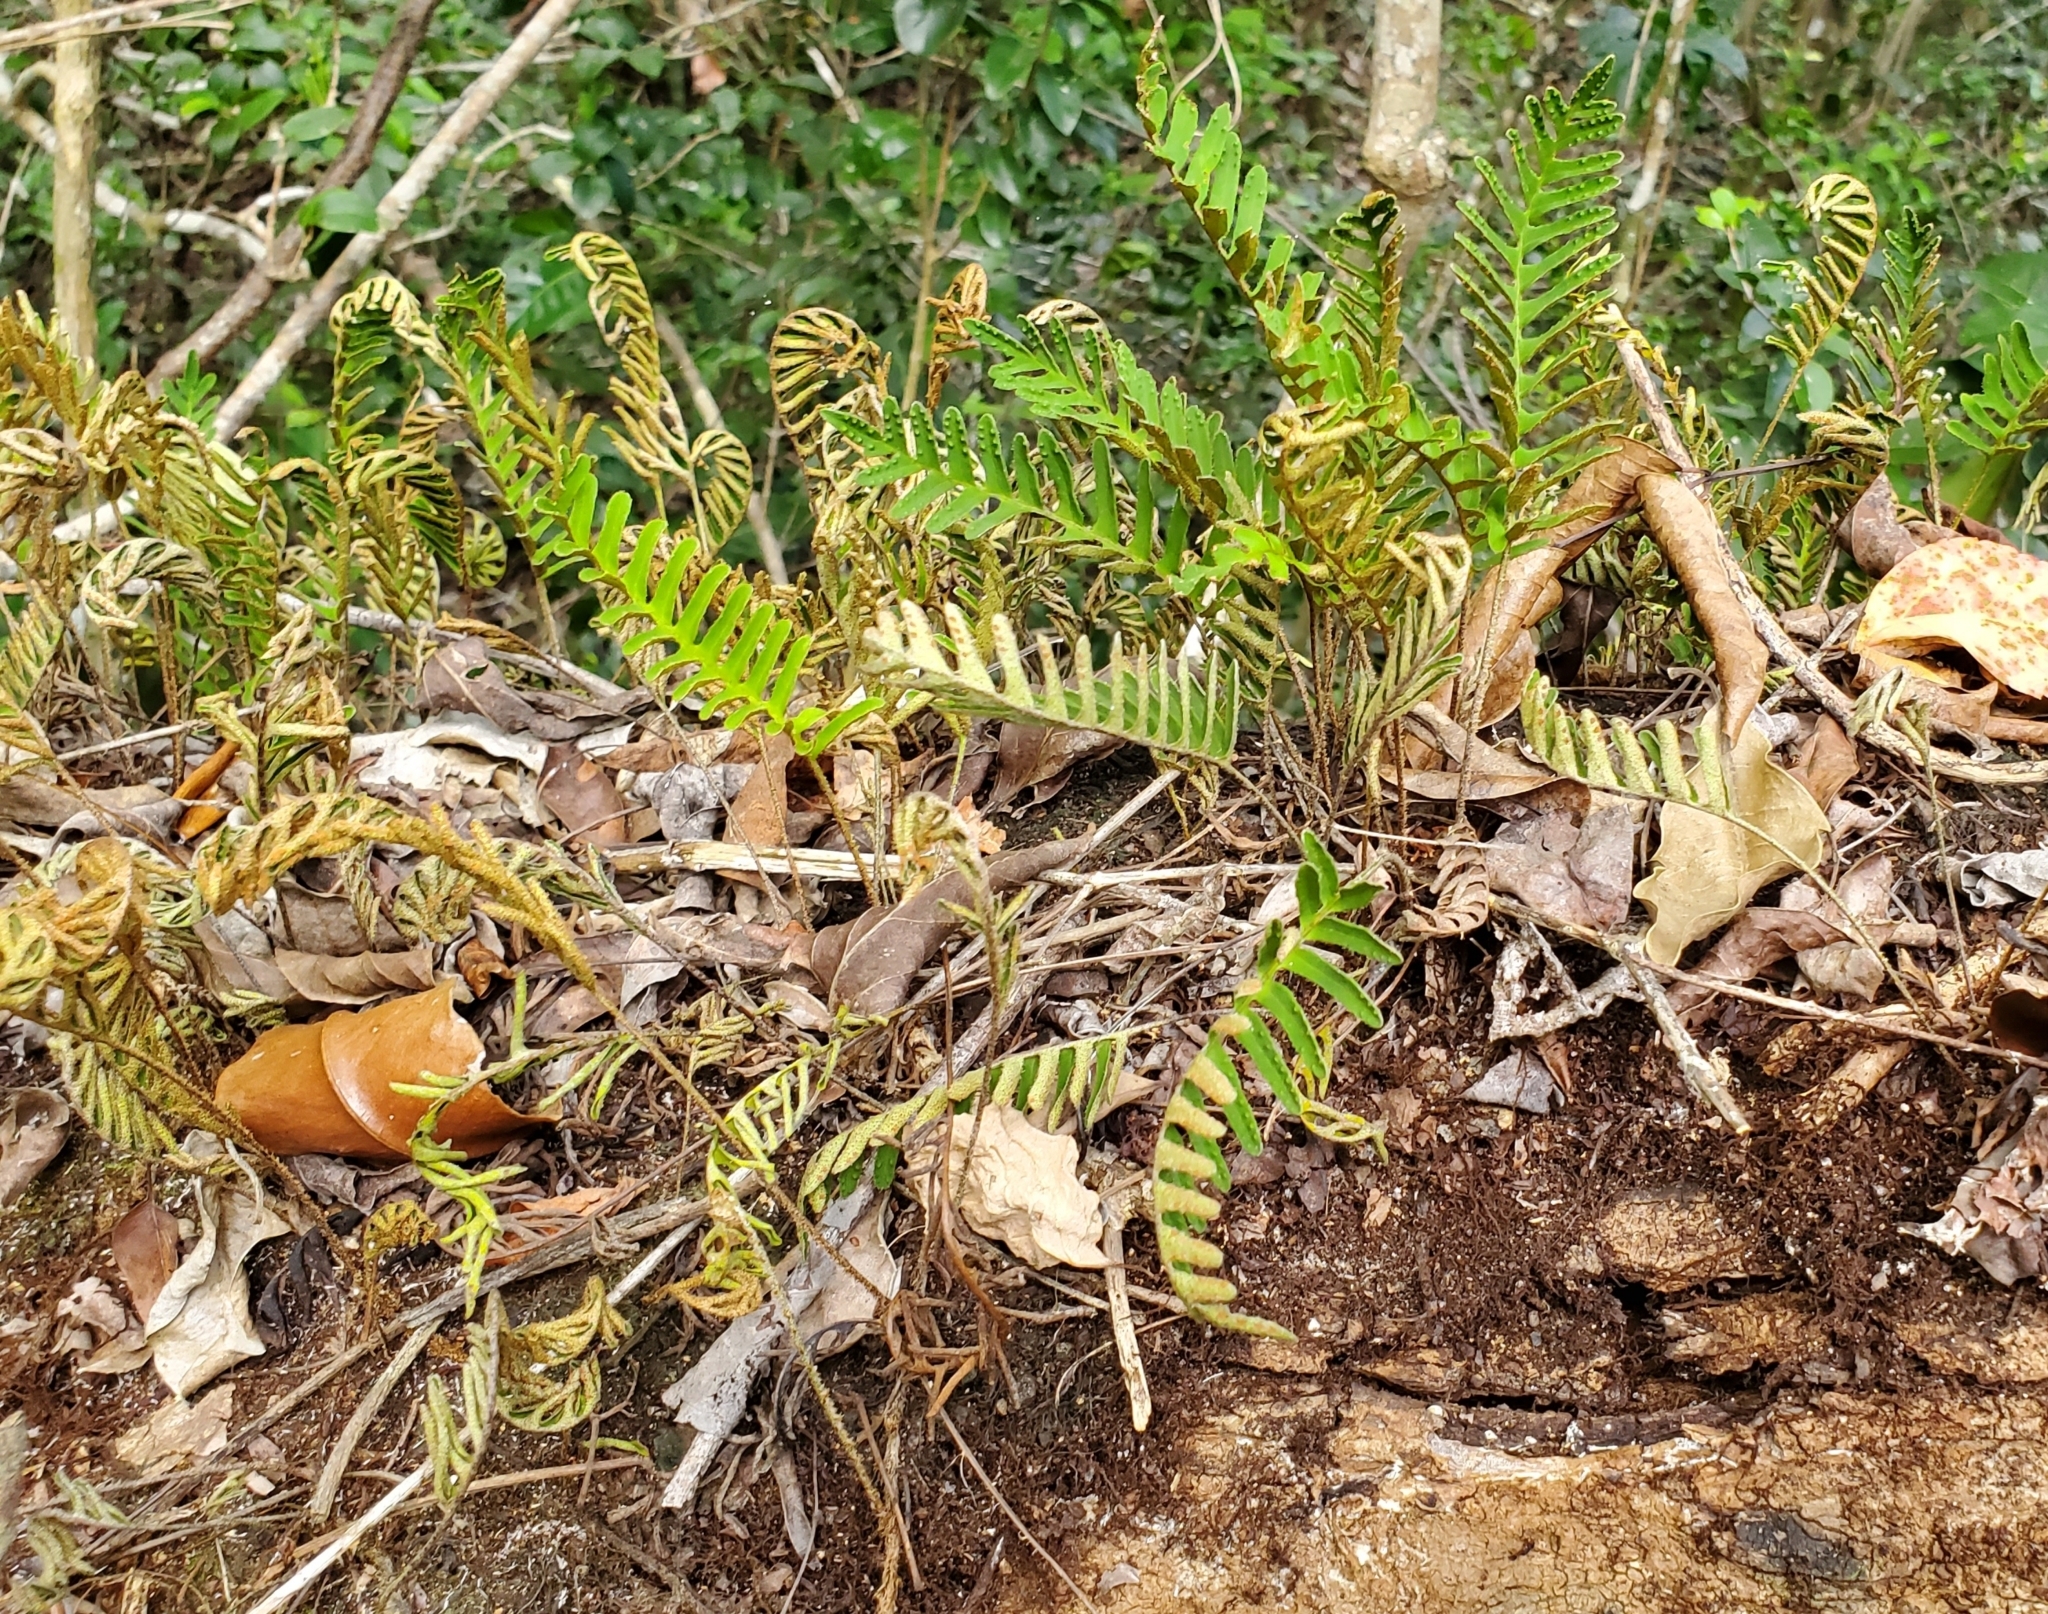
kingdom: Plantae
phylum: Tracheophyta
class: Polypodiopsida
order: Polypodiales
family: Polypodiaceae
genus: Pleopeltis
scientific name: Pleopeltis michauxiana
